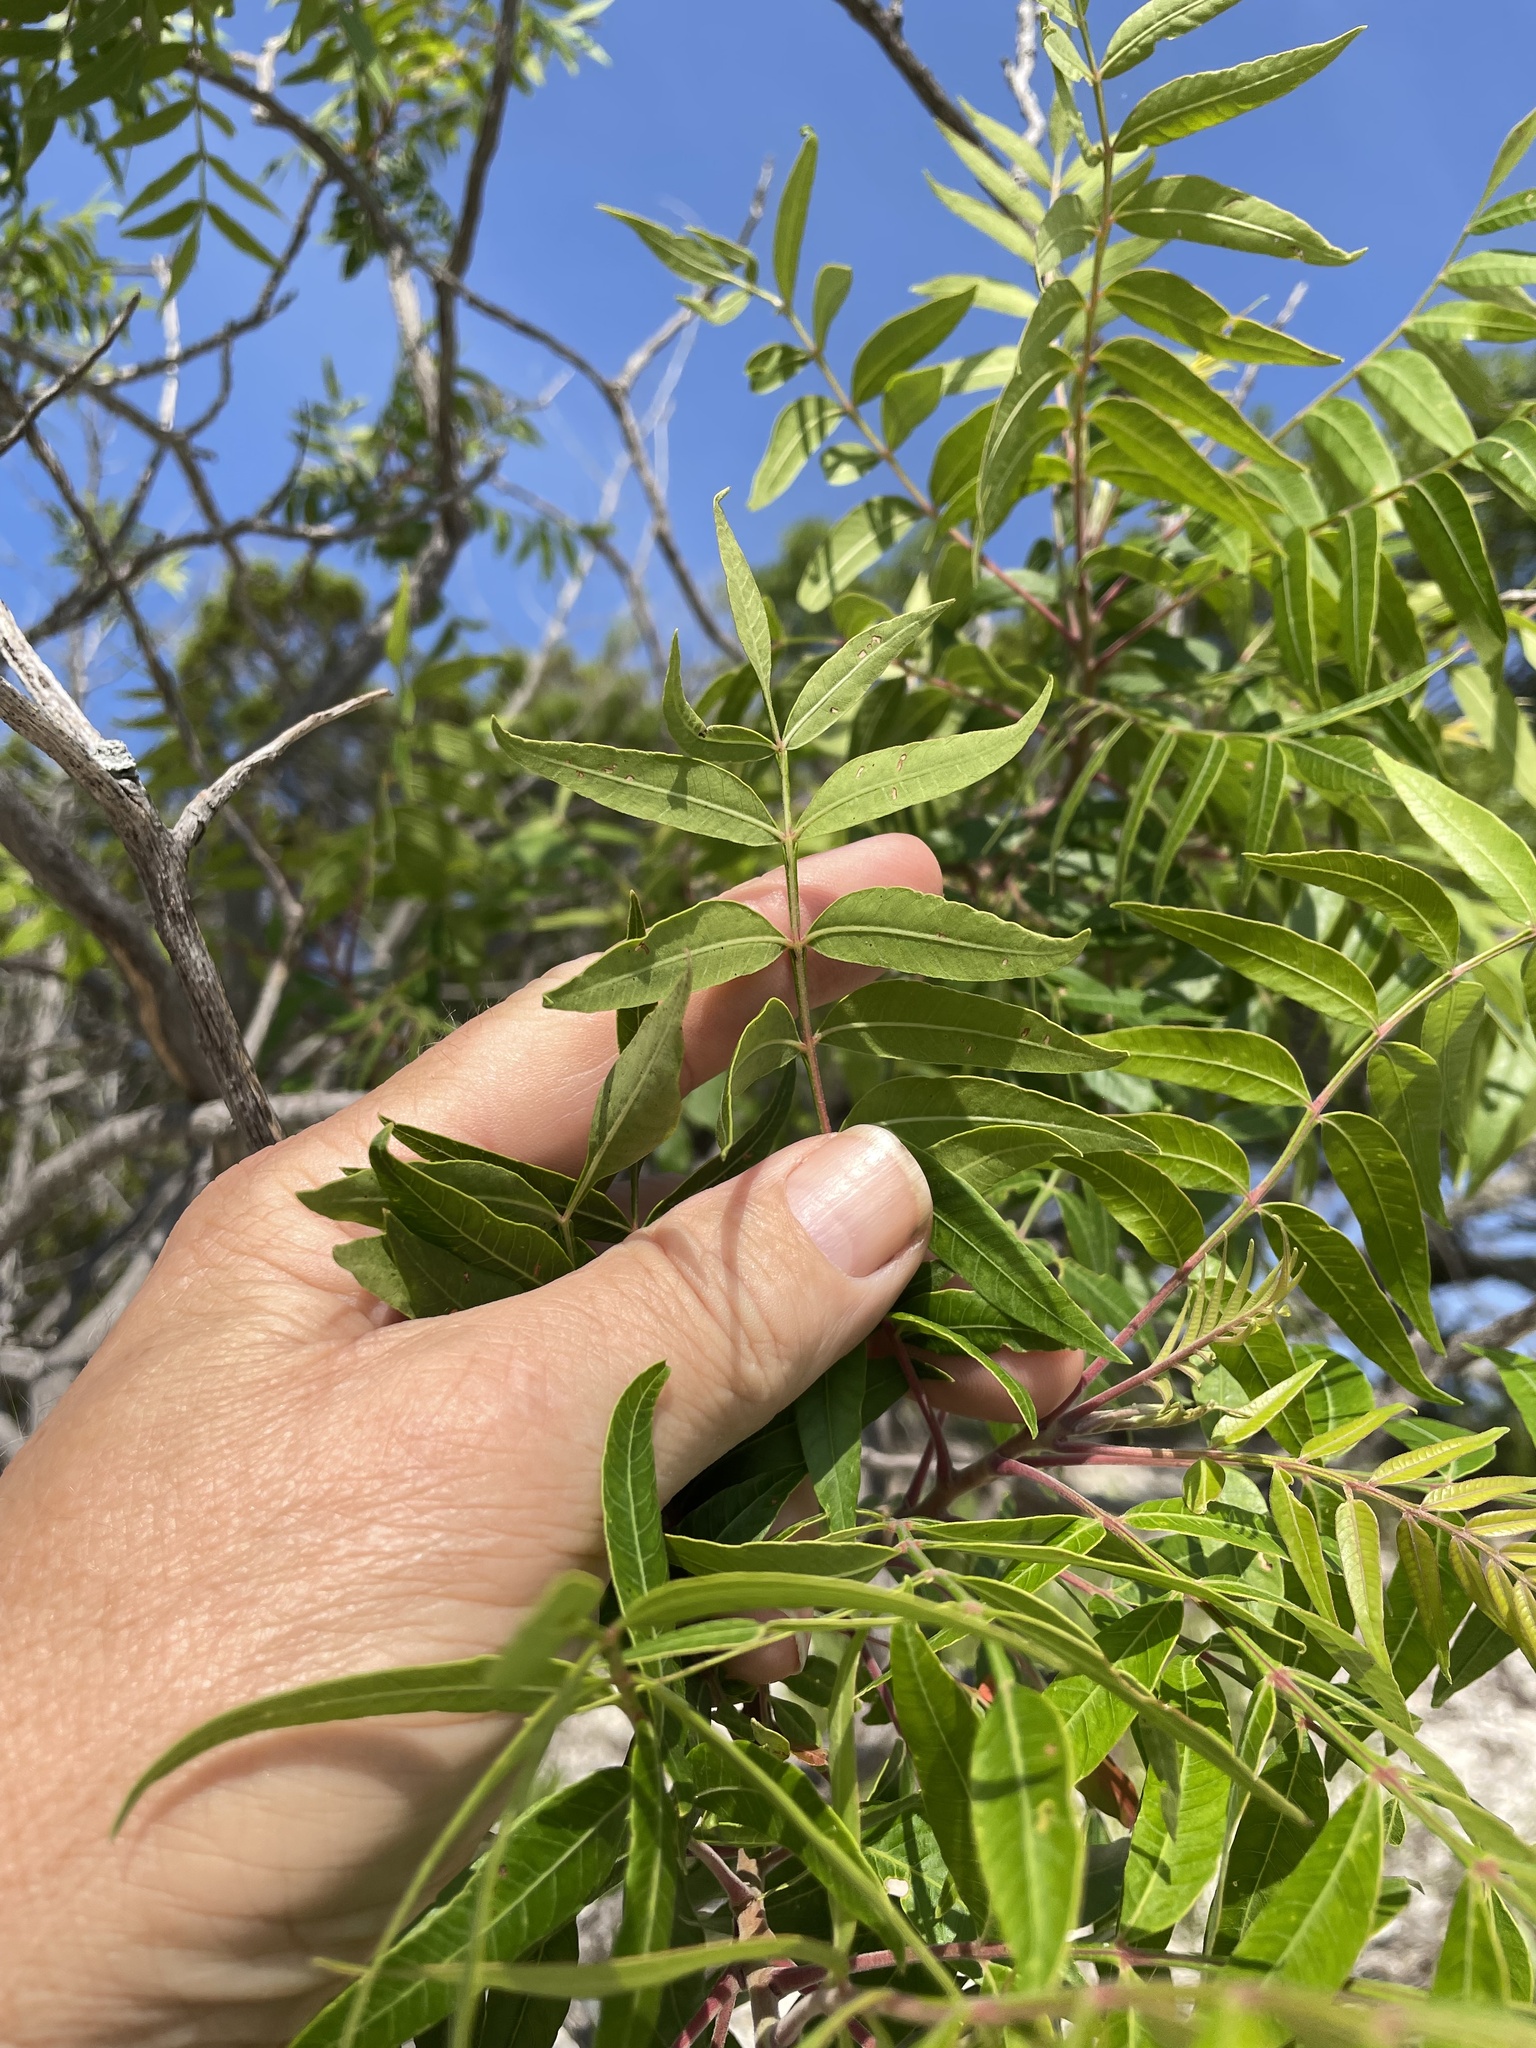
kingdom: Plantae
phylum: Tracheophyta
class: Magnoliopsida
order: Sapindales
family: Anacardiaceae
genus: Rhus
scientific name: Rhus lanceolata
